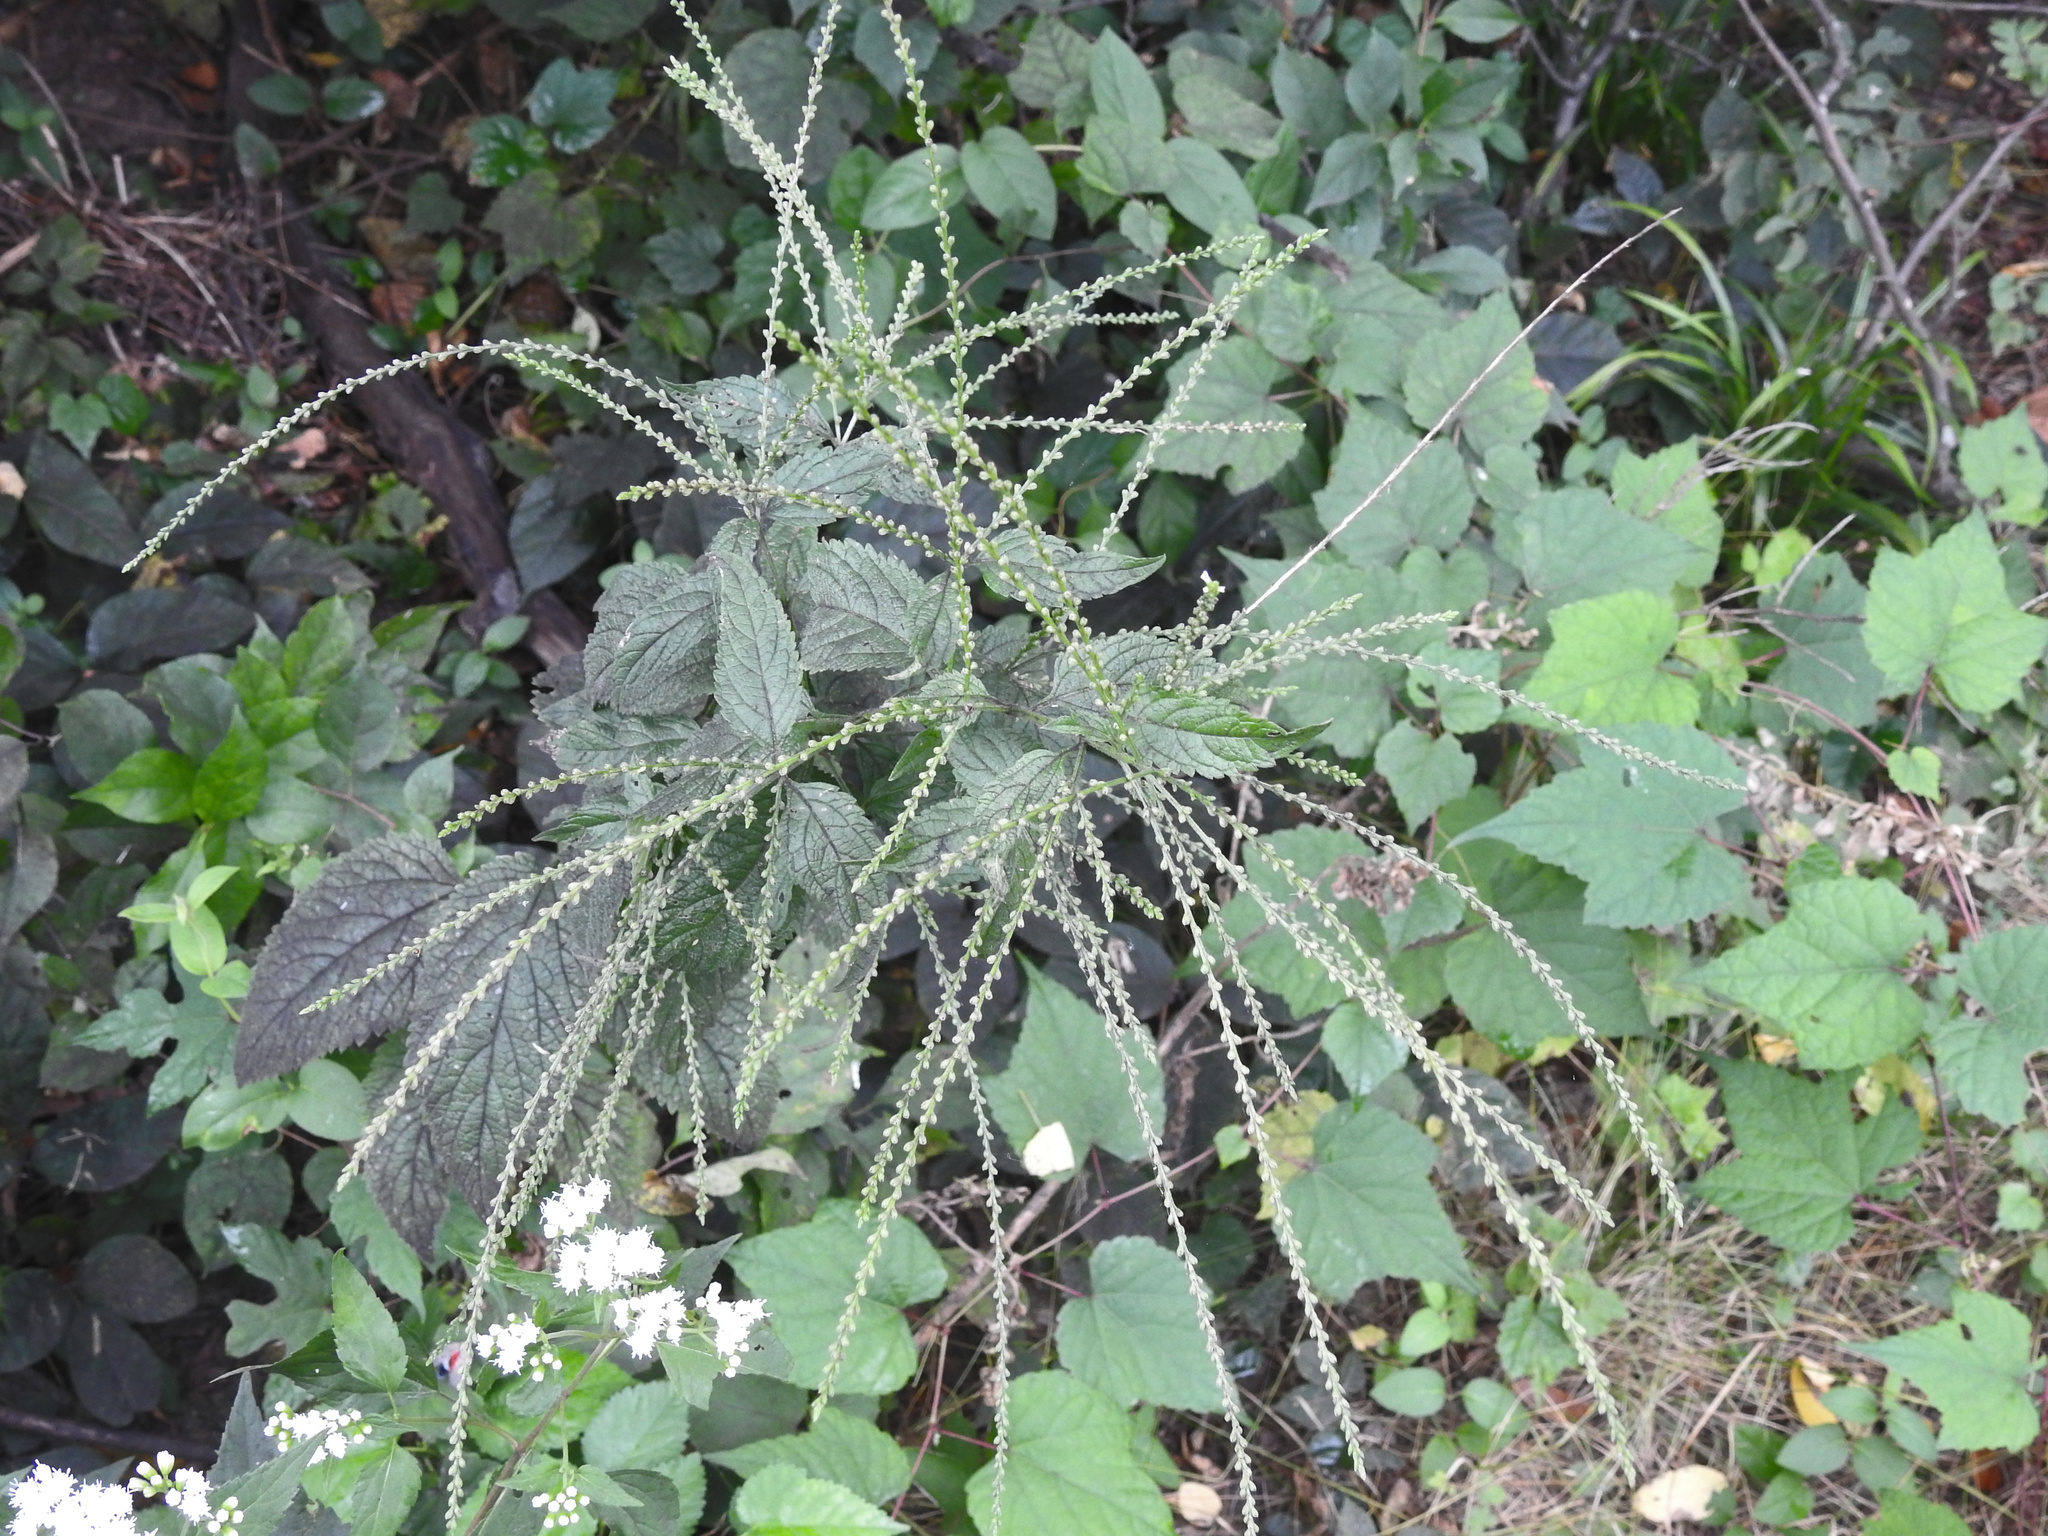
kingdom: Plantae
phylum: Tracheophyta
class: Magnoliopsida
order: Lamiales
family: Verbenaceae
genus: Verbena
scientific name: Verbena urticifolia
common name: Nettle-leaved vervain
